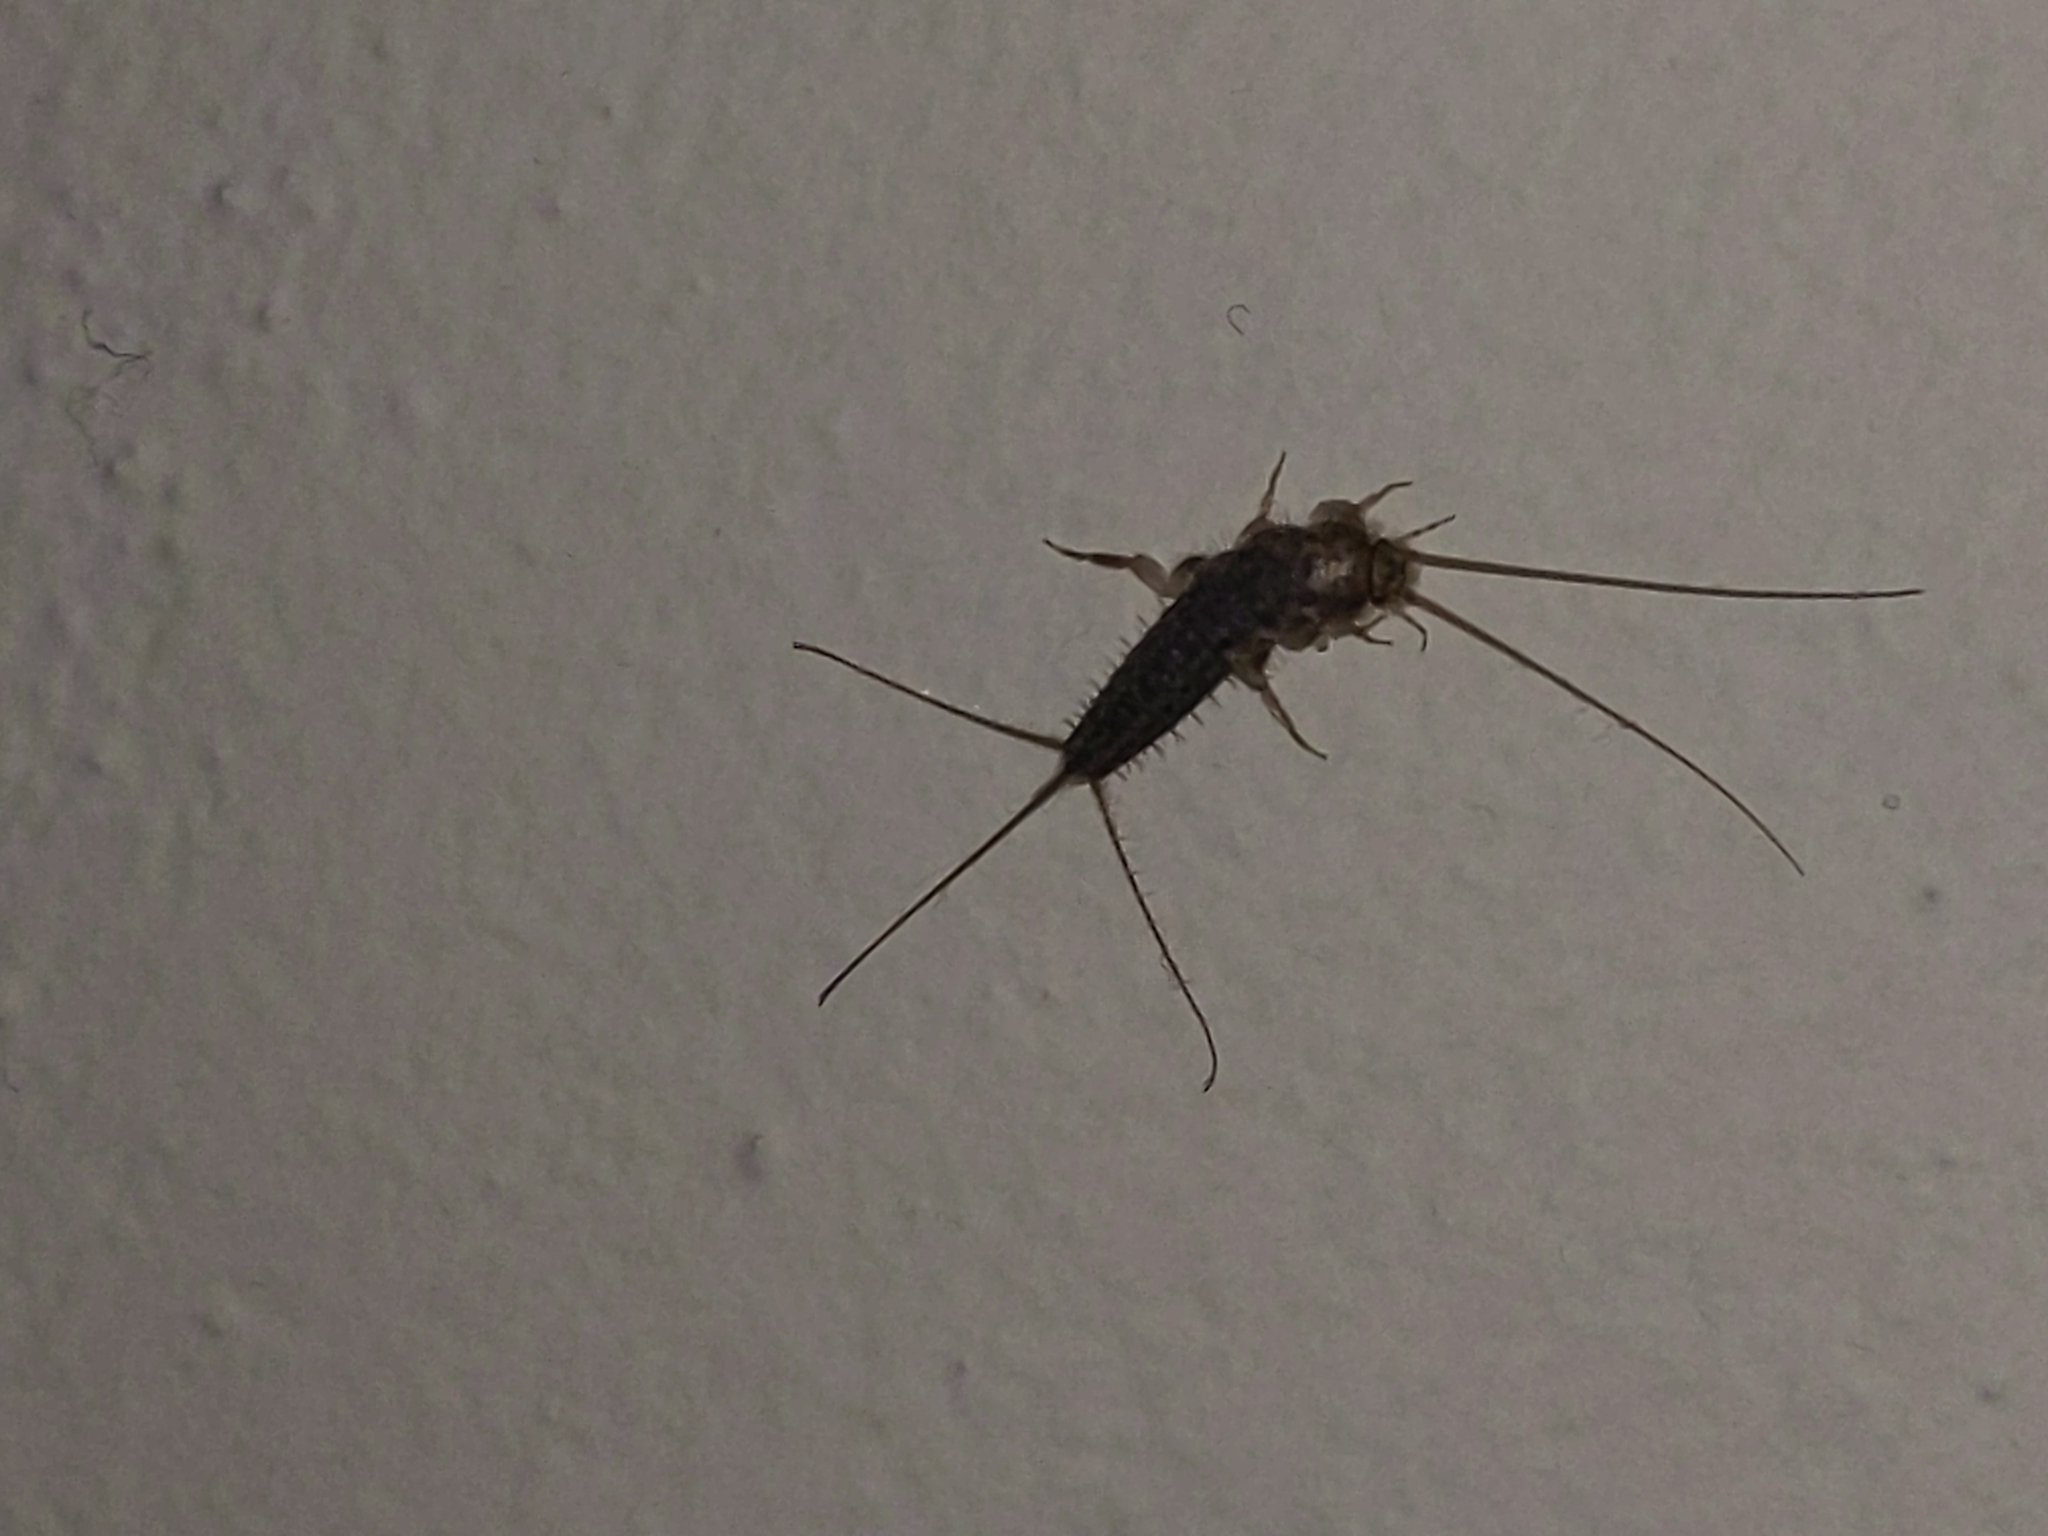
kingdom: Animalia
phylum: Arthropoda
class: Insecta
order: Zygentoma
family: Lepismatidae
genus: Ctenolepisma
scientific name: Ctenolepisma lineata
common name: Four-lined silverfish
